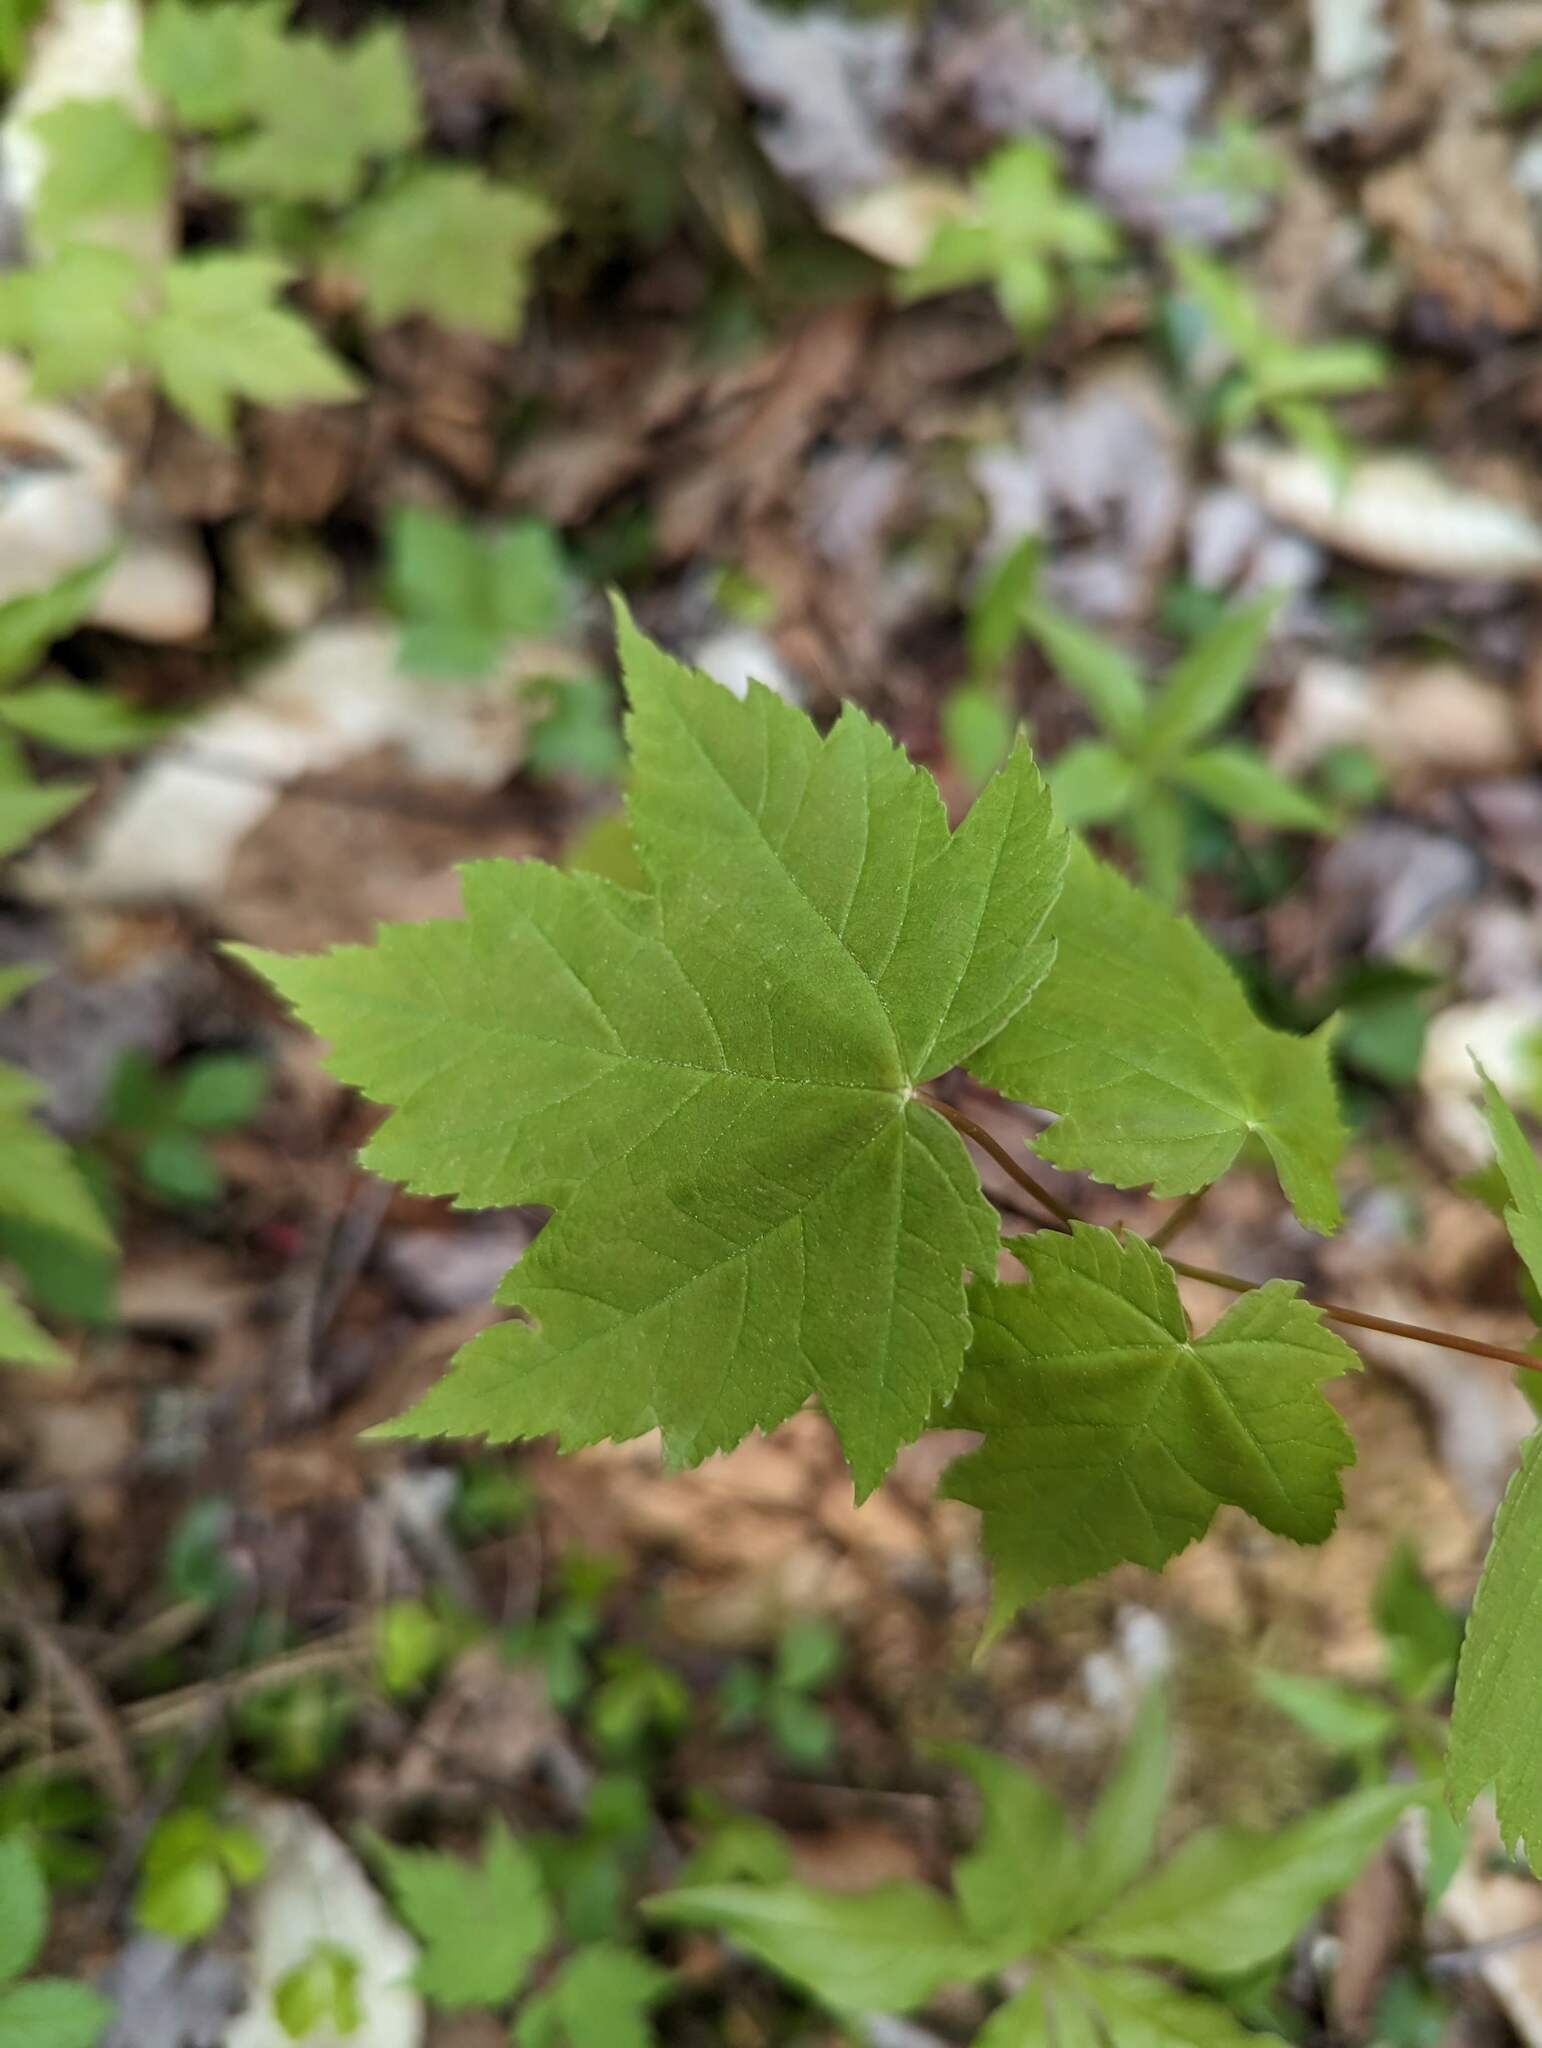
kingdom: Plantae
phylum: Tracheophyta
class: Magnoliopsida
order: Sapindales
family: Sapindaceae
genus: Acer
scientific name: Acer rubrum
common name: Red maple
